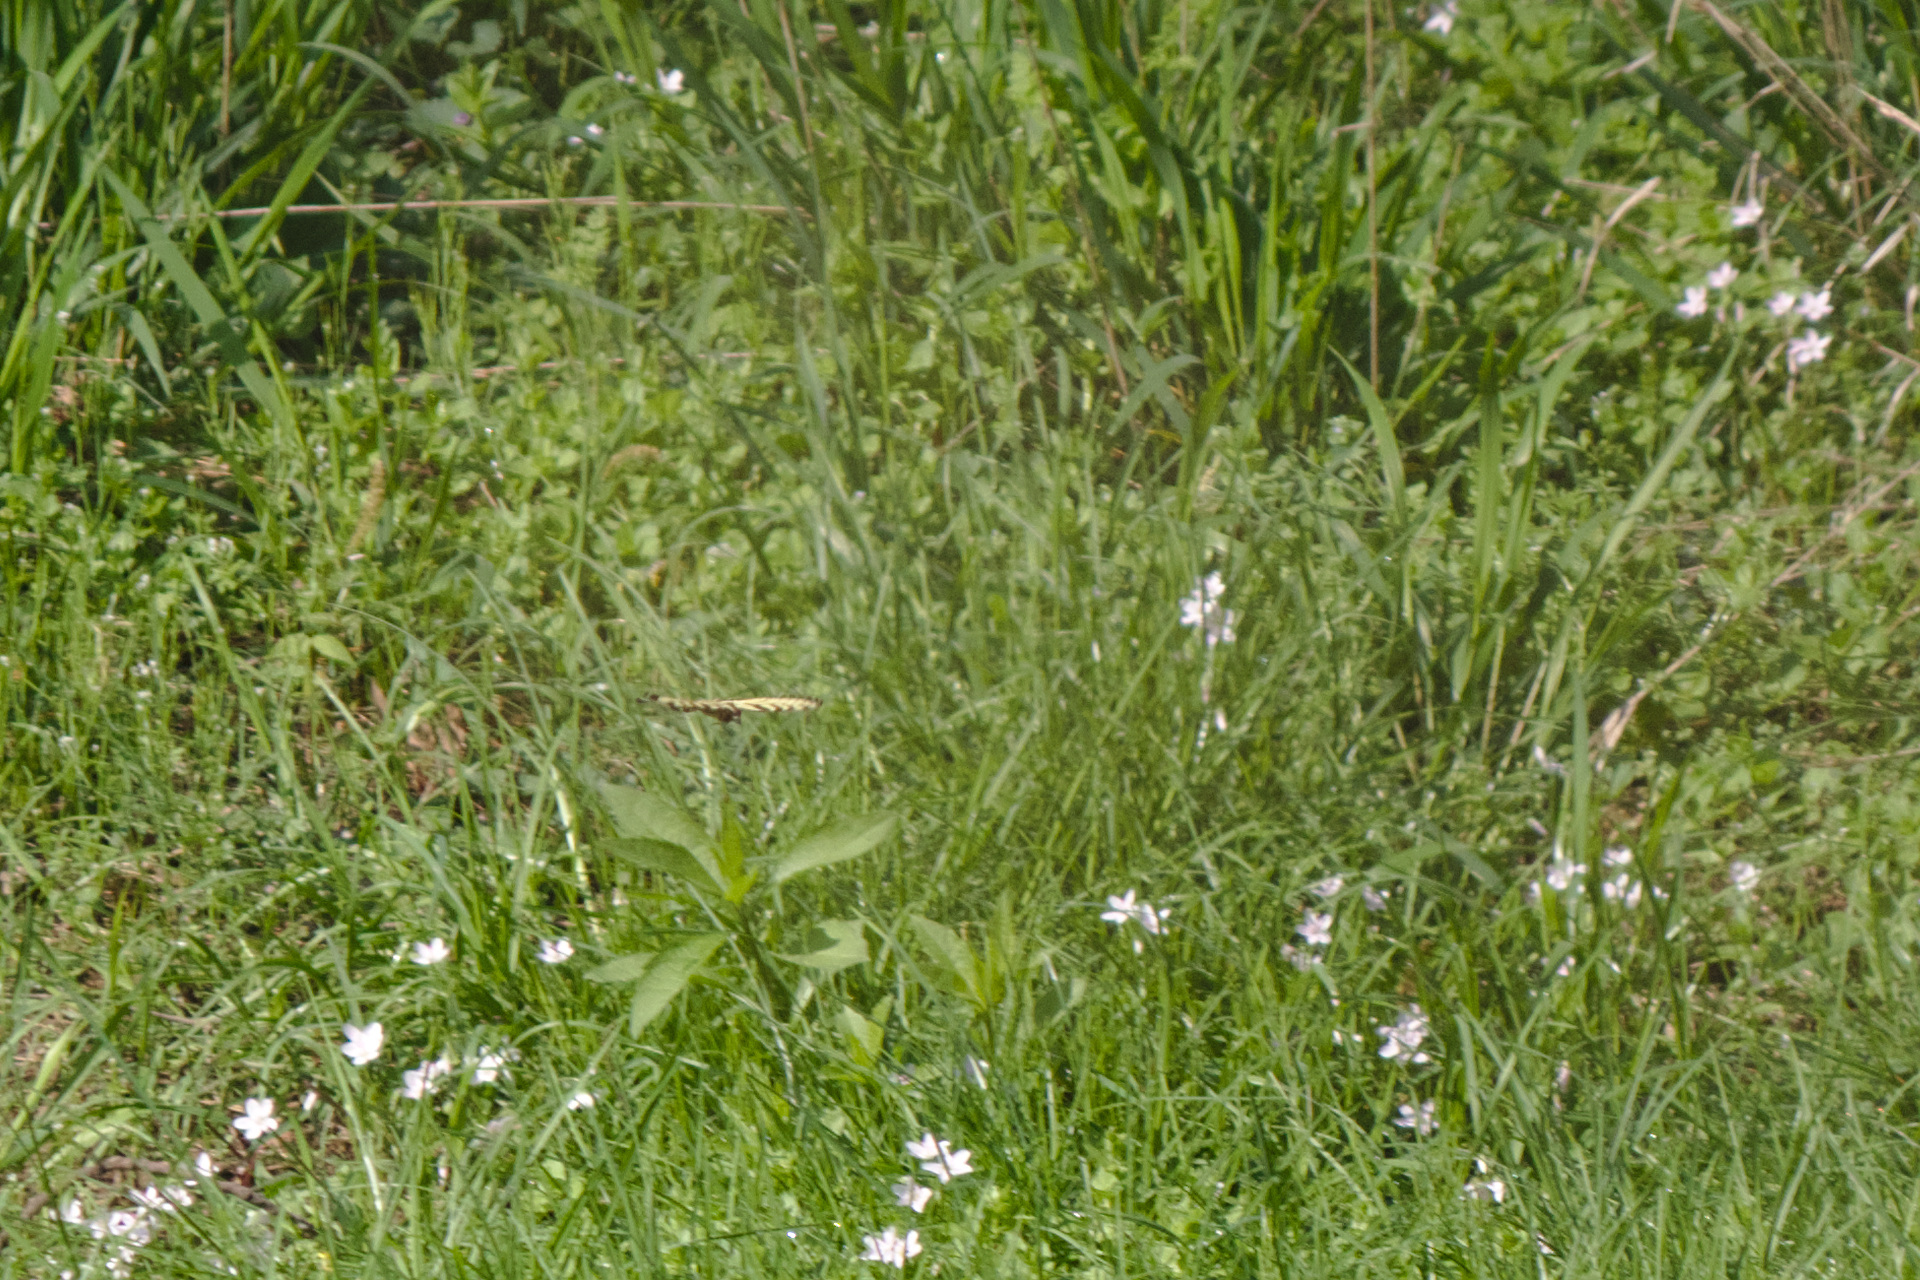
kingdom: Animalia
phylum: Arthropoda
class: Insecta
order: Lepidoptera
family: Papilionidae
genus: Papilio
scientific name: Papilio glaucus
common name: Tiger swallowtail
